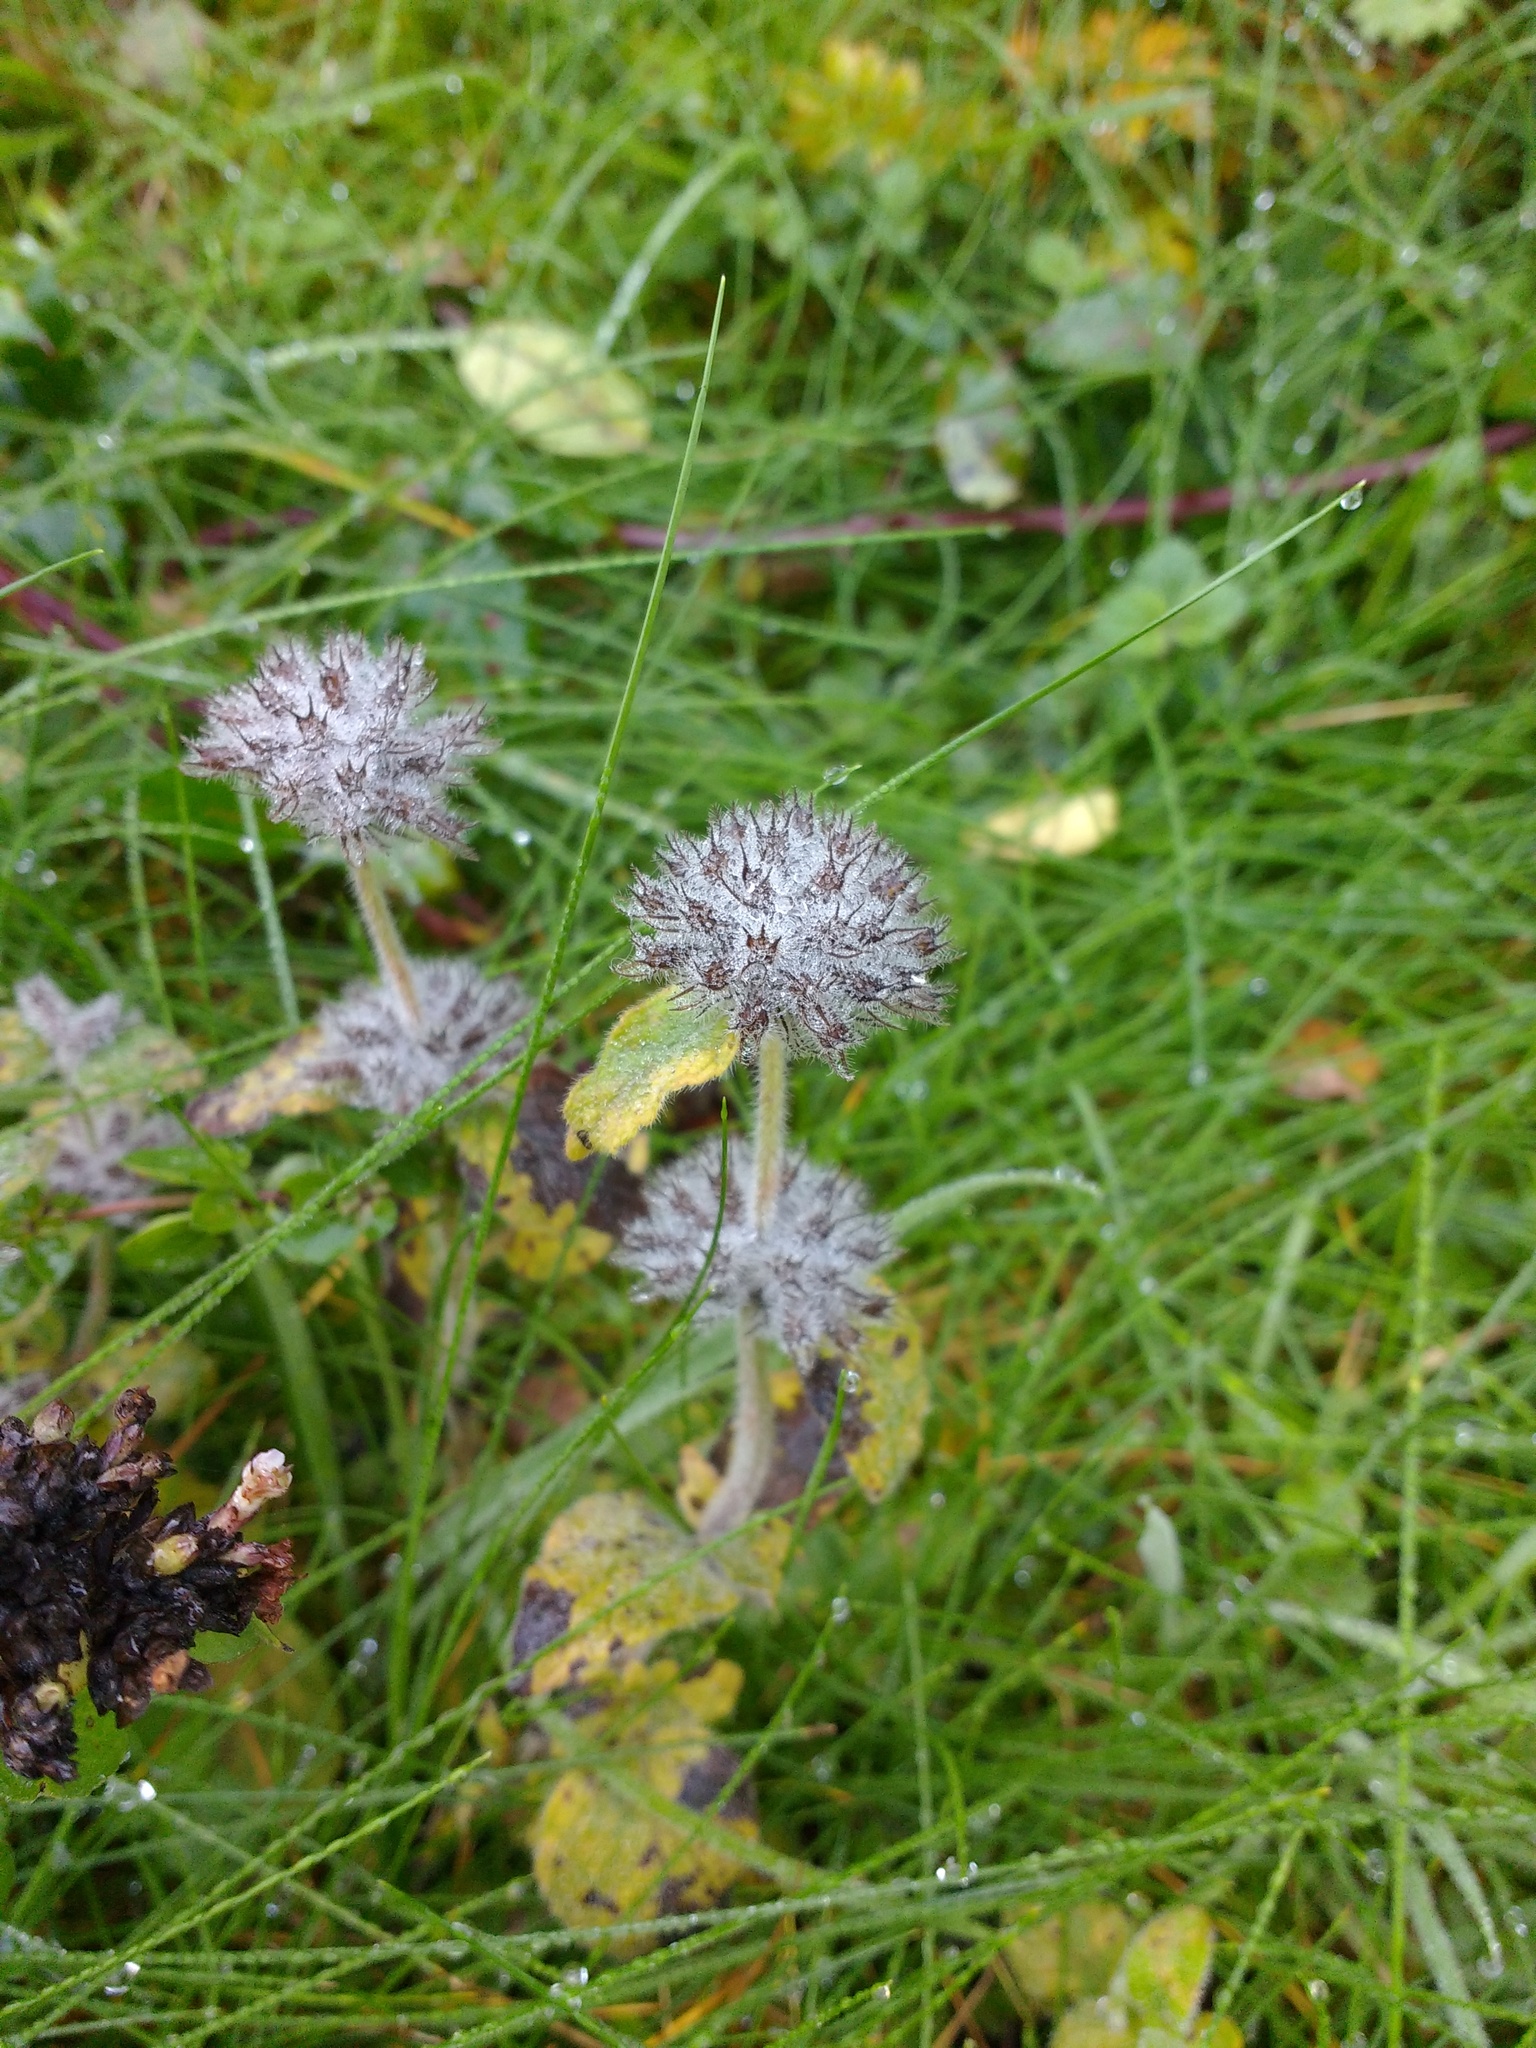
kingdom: Plantae
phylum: Tracheophyta
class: Magnoliopsida
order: Lamiales
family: Lamiaceae
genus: Clinopodium
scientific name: Clinopodium vulgare
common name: Wild basil
